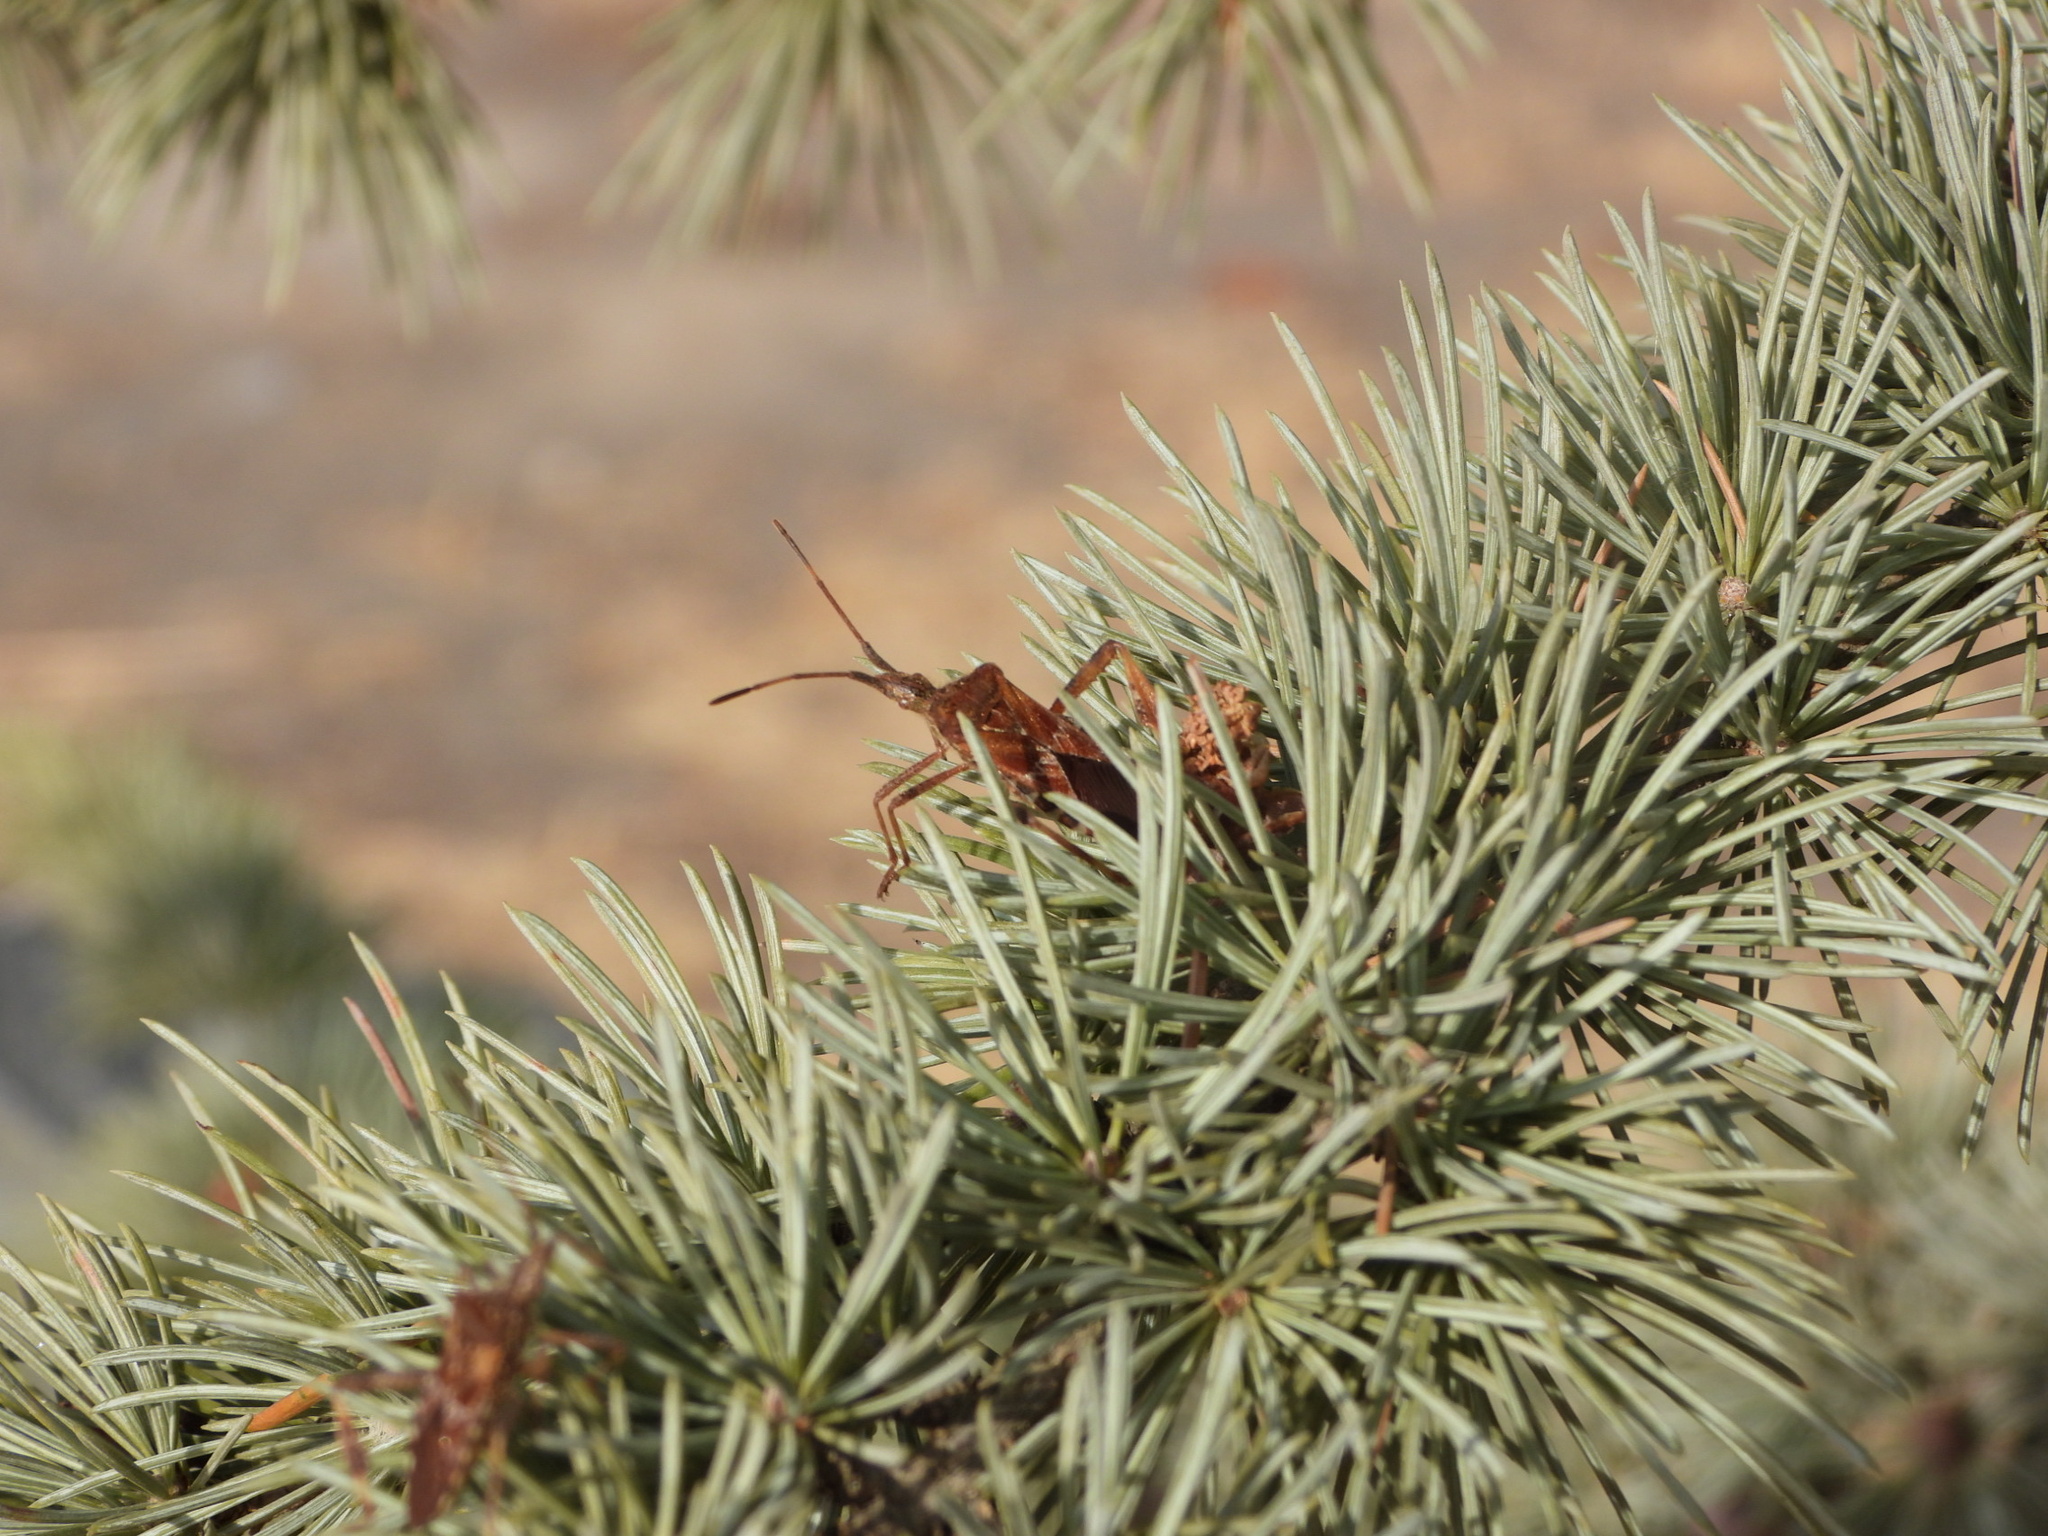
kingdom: Animalia
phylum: Arthropoda
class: Insecta
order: Hemiptera
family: Coreidae
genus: Leptoglossus
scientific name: Leptoglossus occidentalis
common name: Western conifer-seed bug
